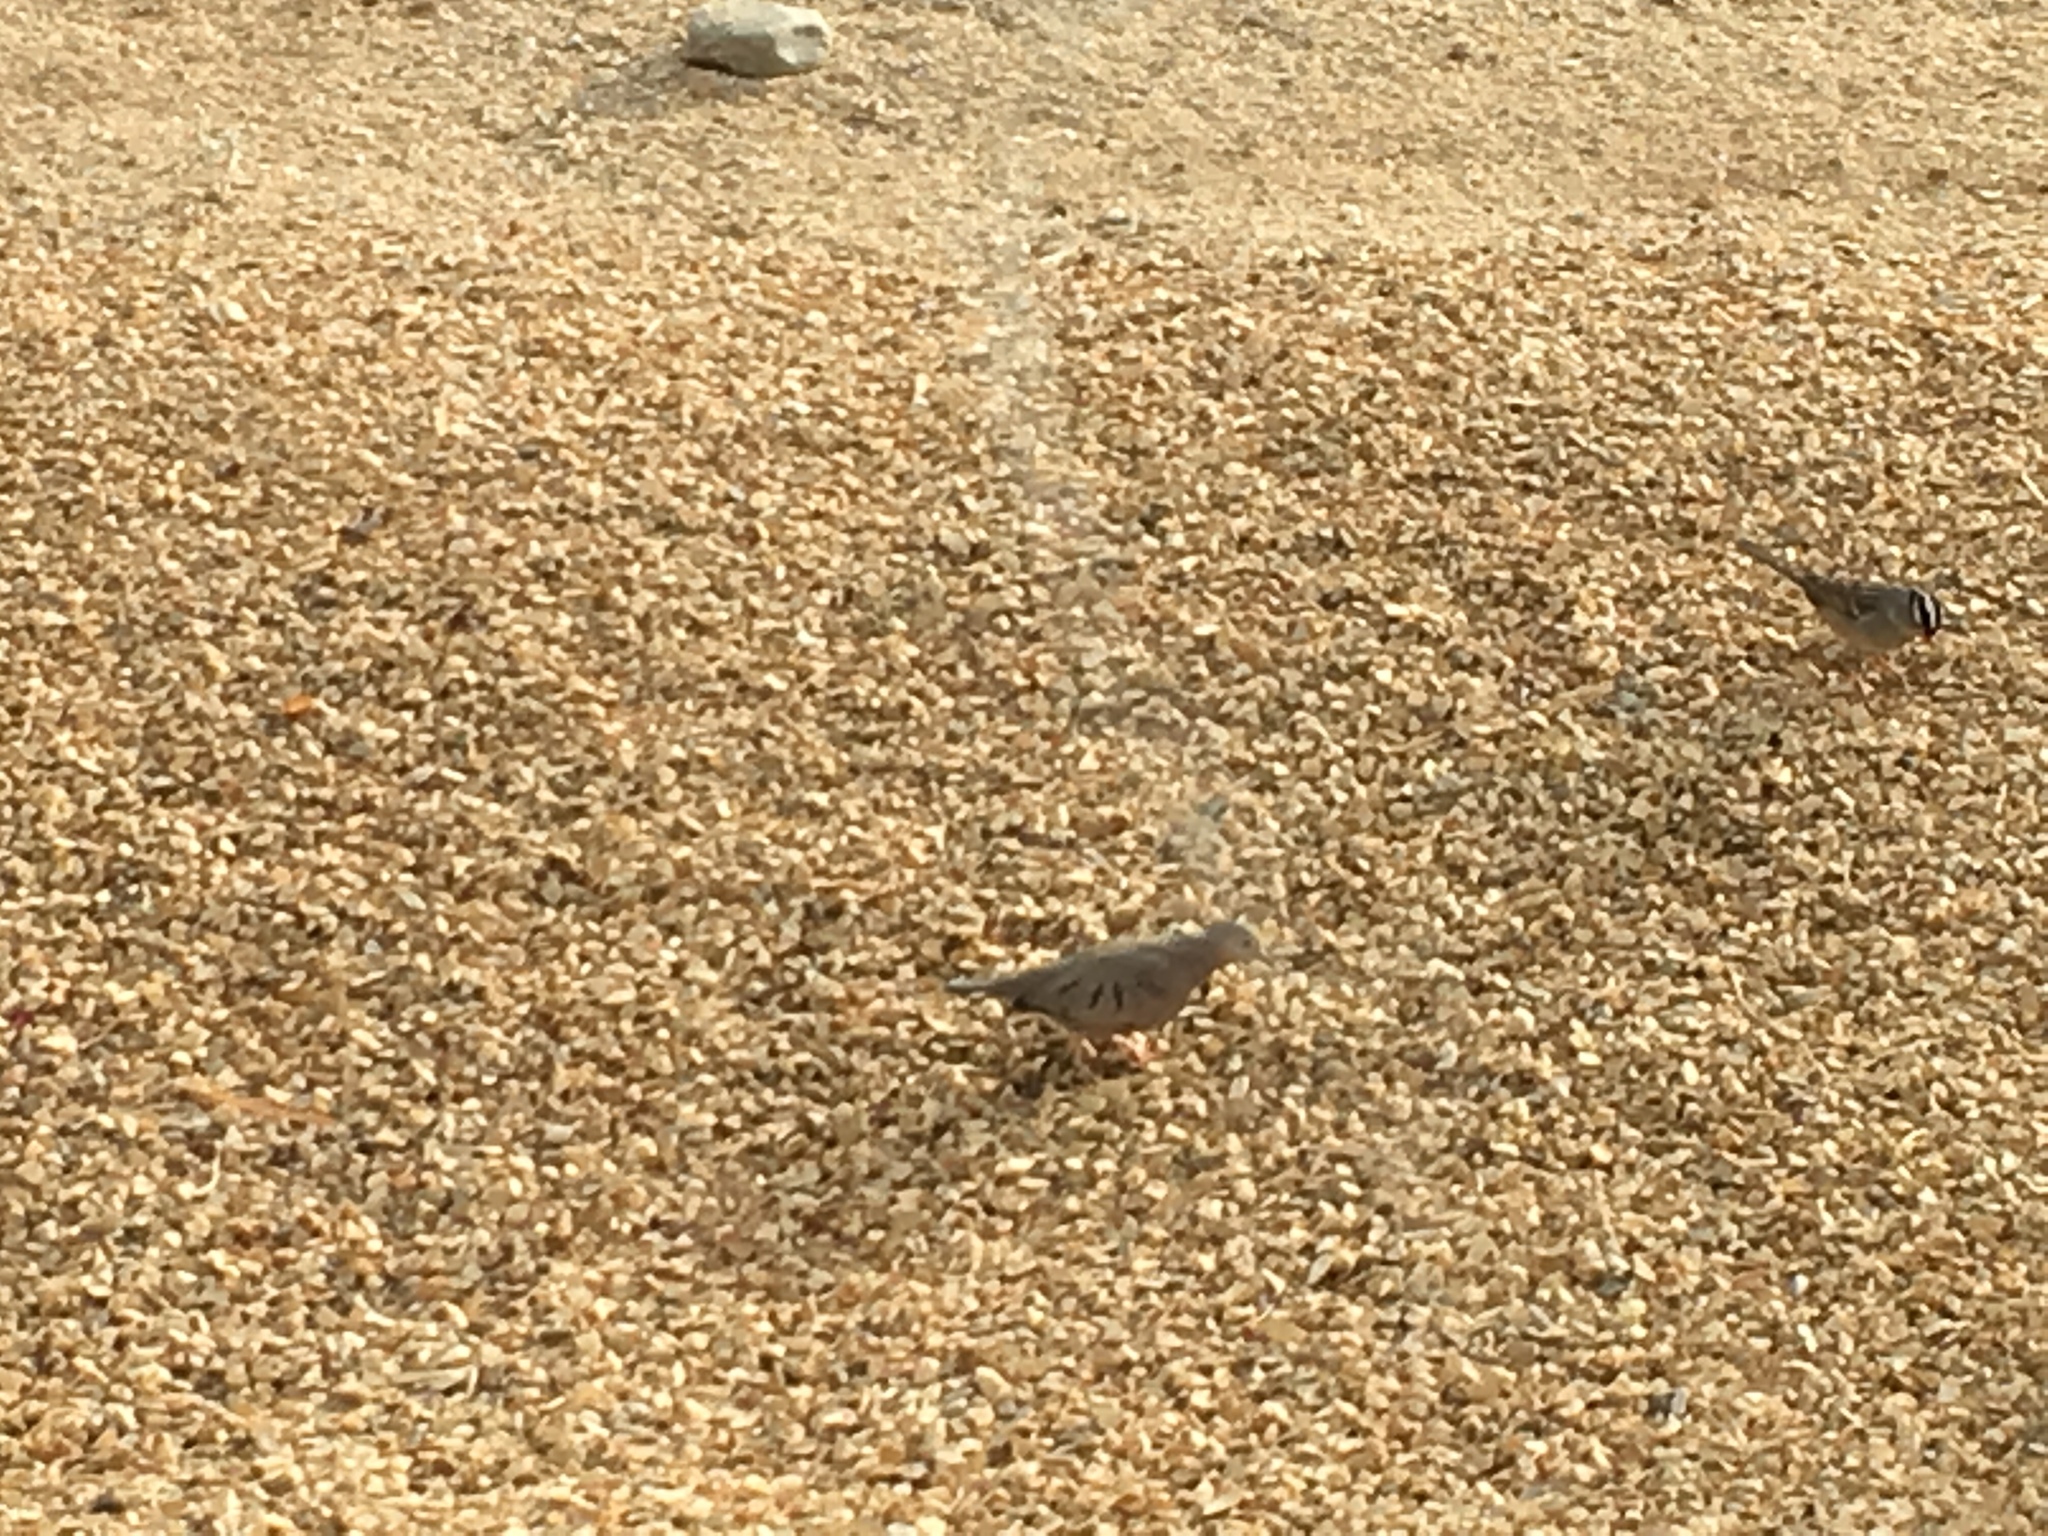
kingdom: Animalia
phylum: Chordata
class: Aves
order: Columbiformes
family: Columbidae
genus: Columbina
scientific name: Columbina passerina
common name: Common ground-dove
